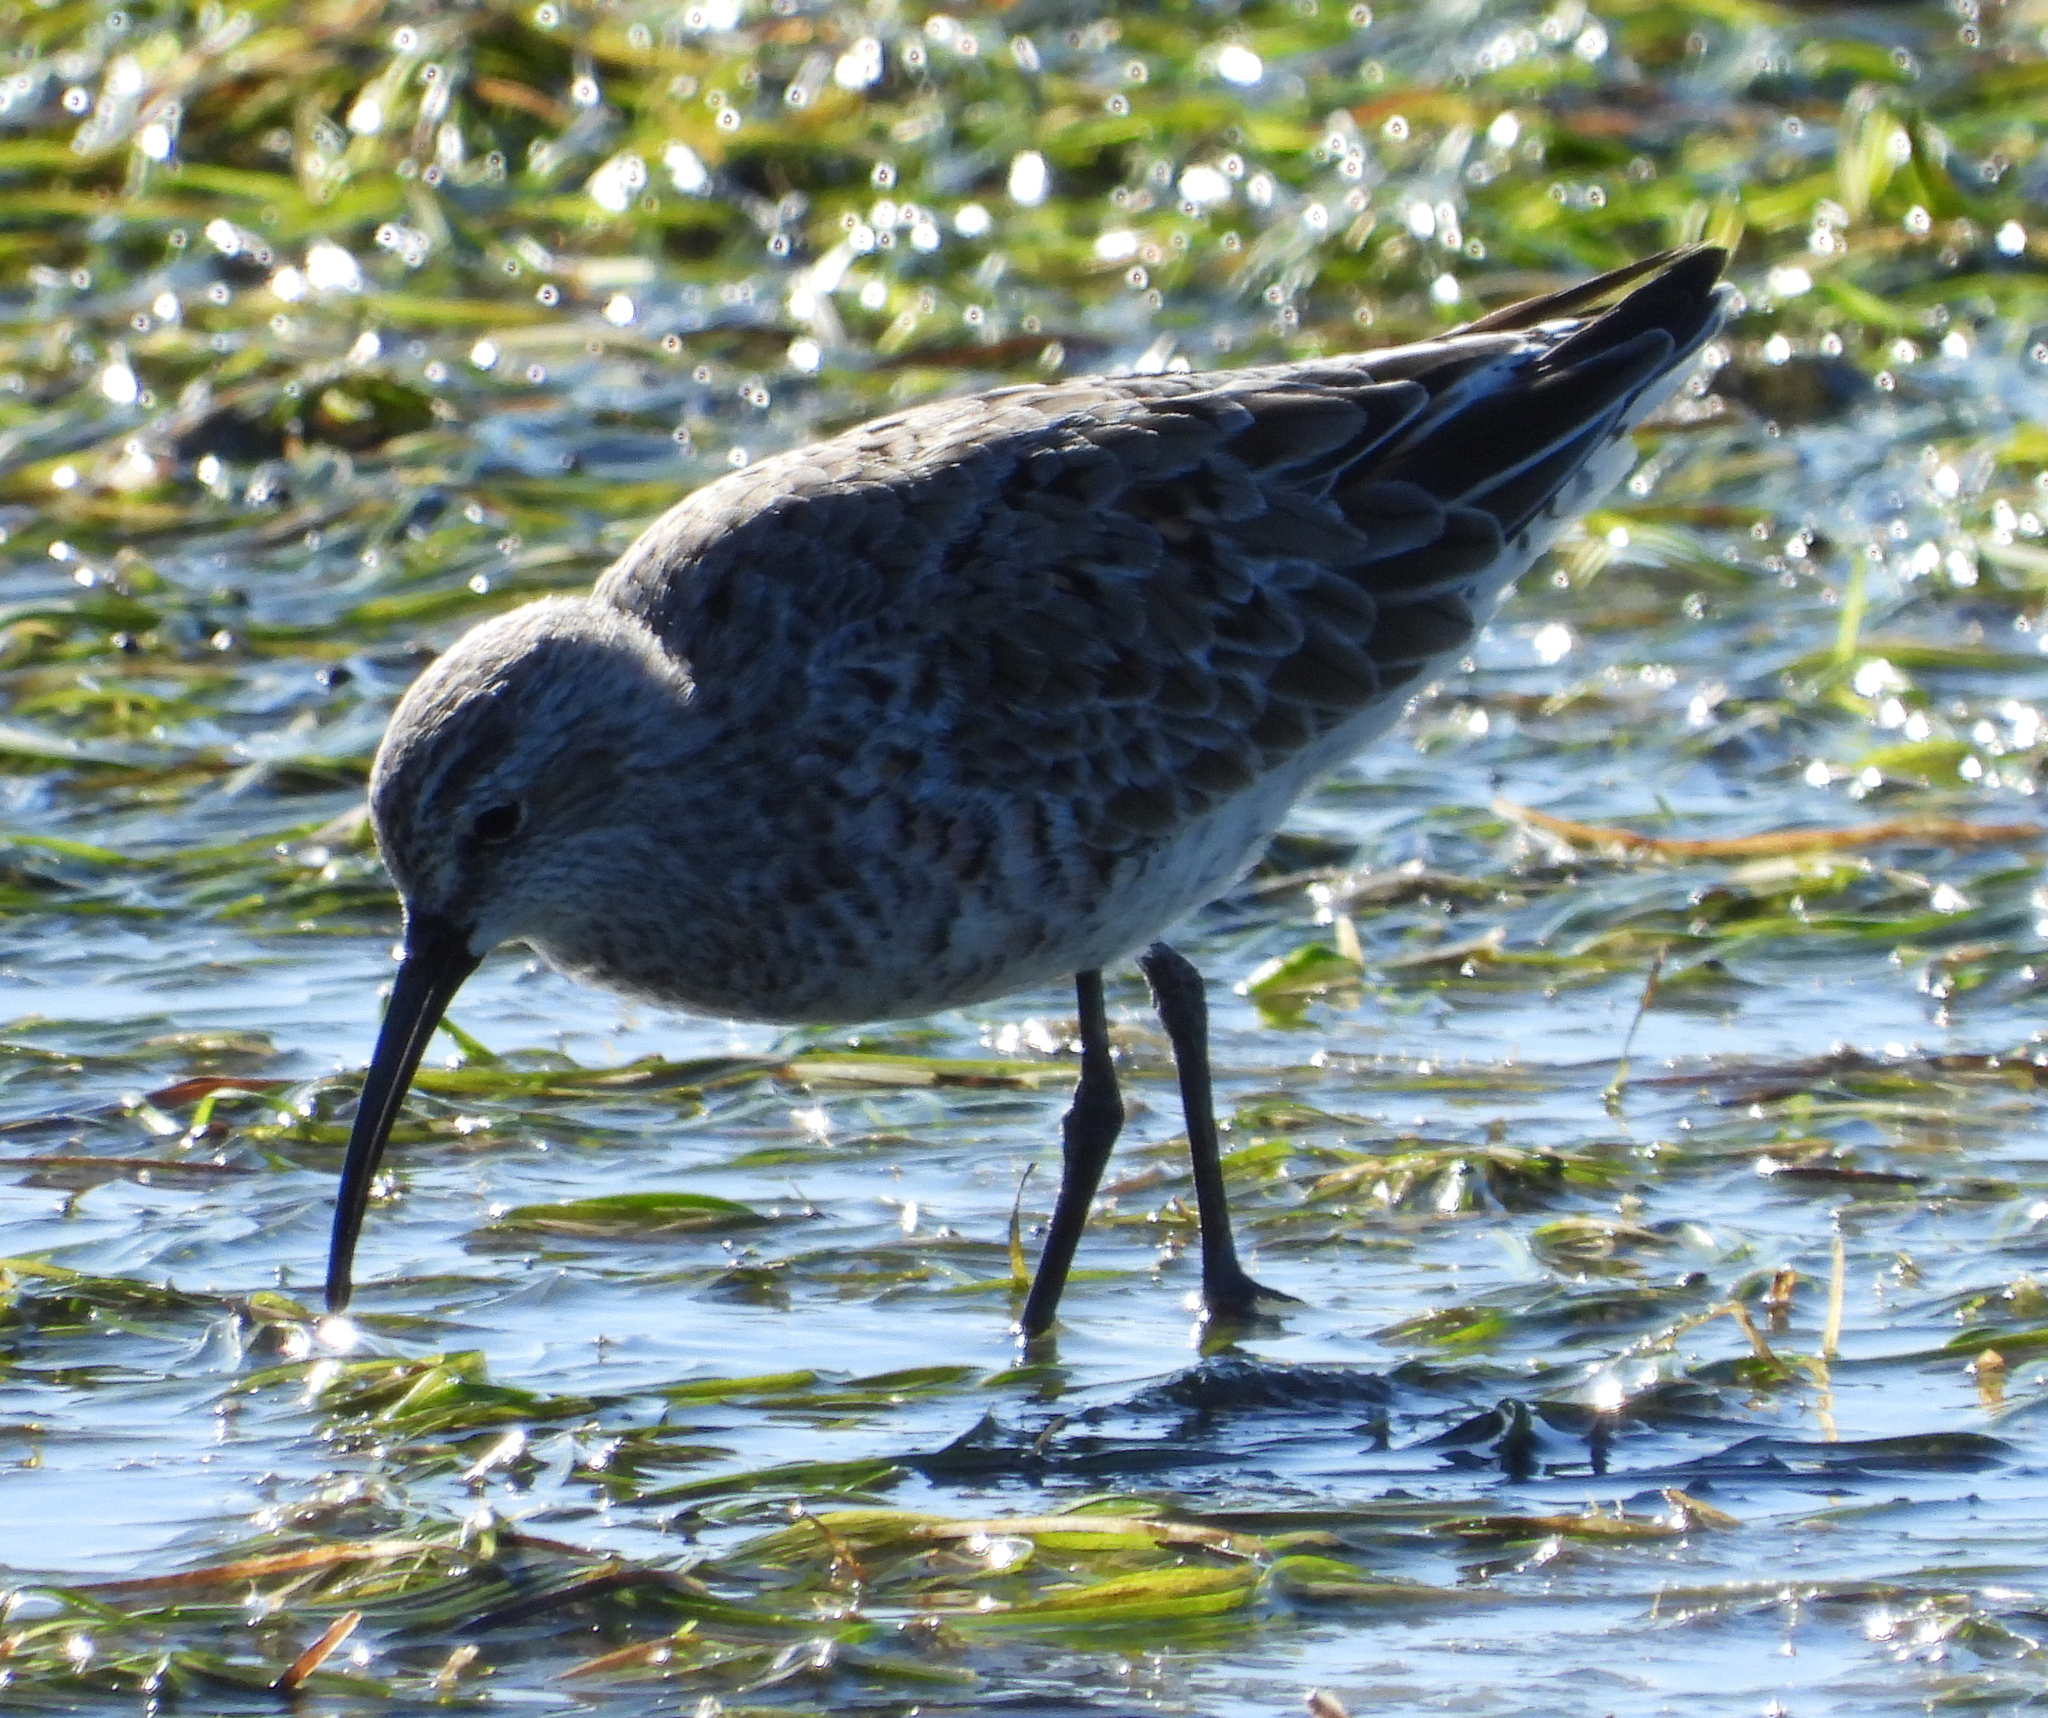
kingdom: Animalia
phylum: Chordata
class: Aves
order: Charadriiformes
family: Scolopacidae
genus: Calidris
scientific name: Calidris ferruginea
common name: Curlew sandpiper
